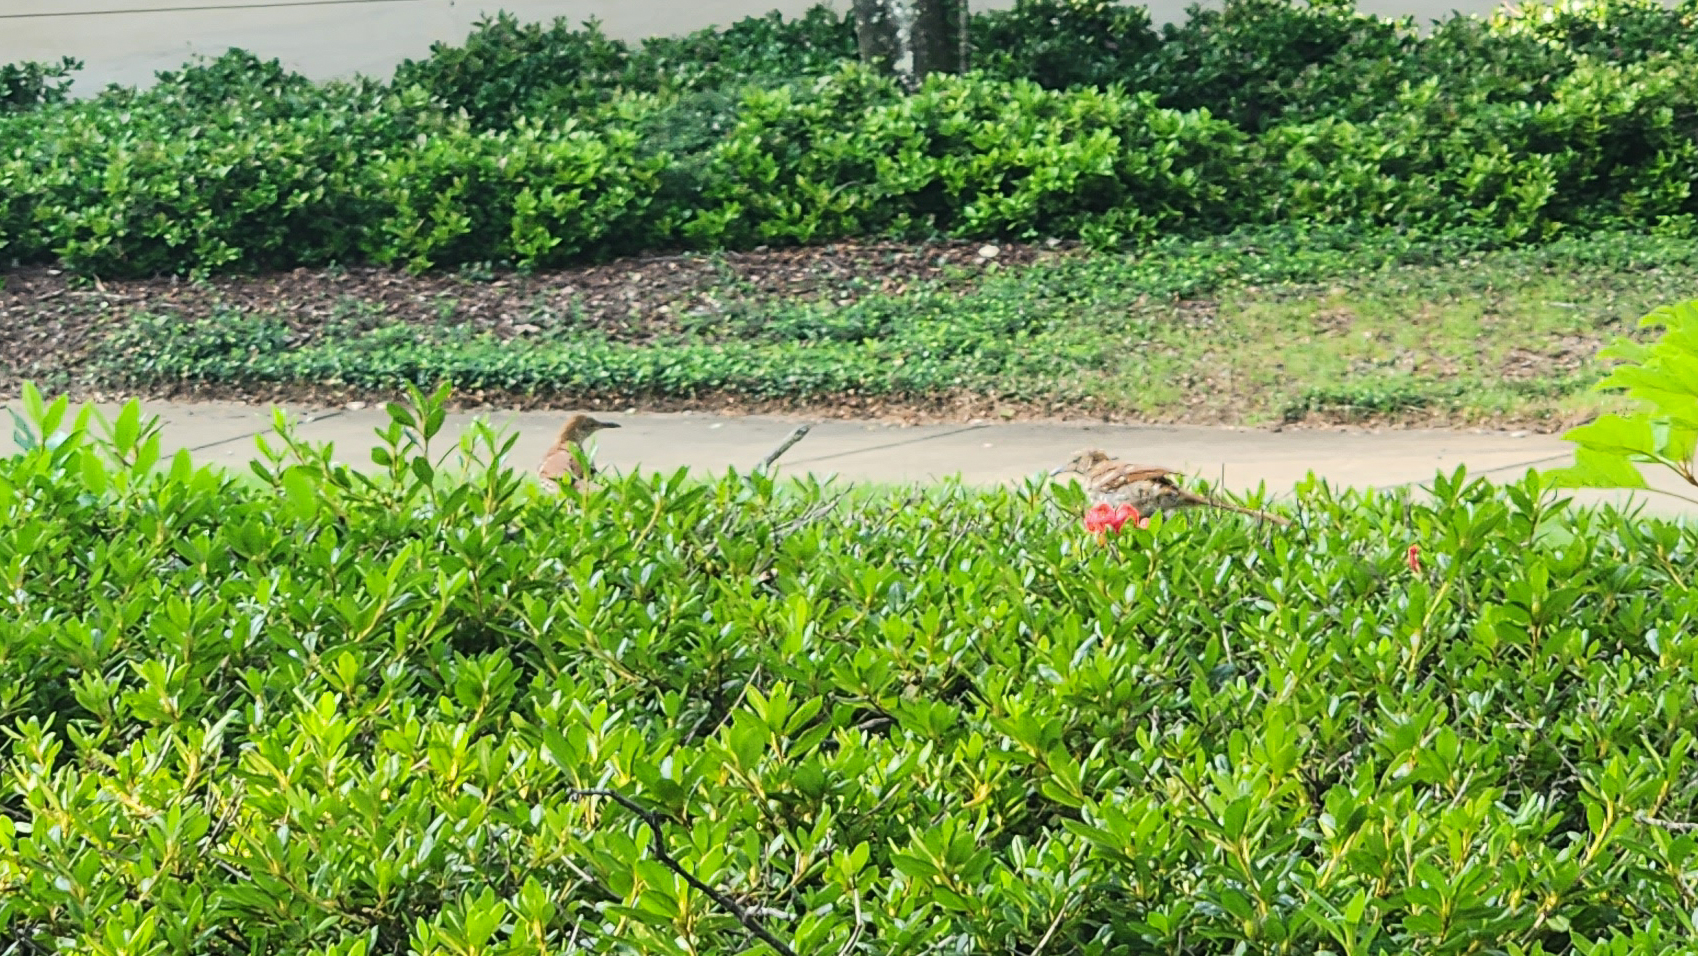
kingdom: Animalia
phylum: Chordata
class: Aves
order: Passeriformes
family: Mimidae
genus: Toxostoma
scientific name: Toxostoma rufum
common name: Brown thrasher
